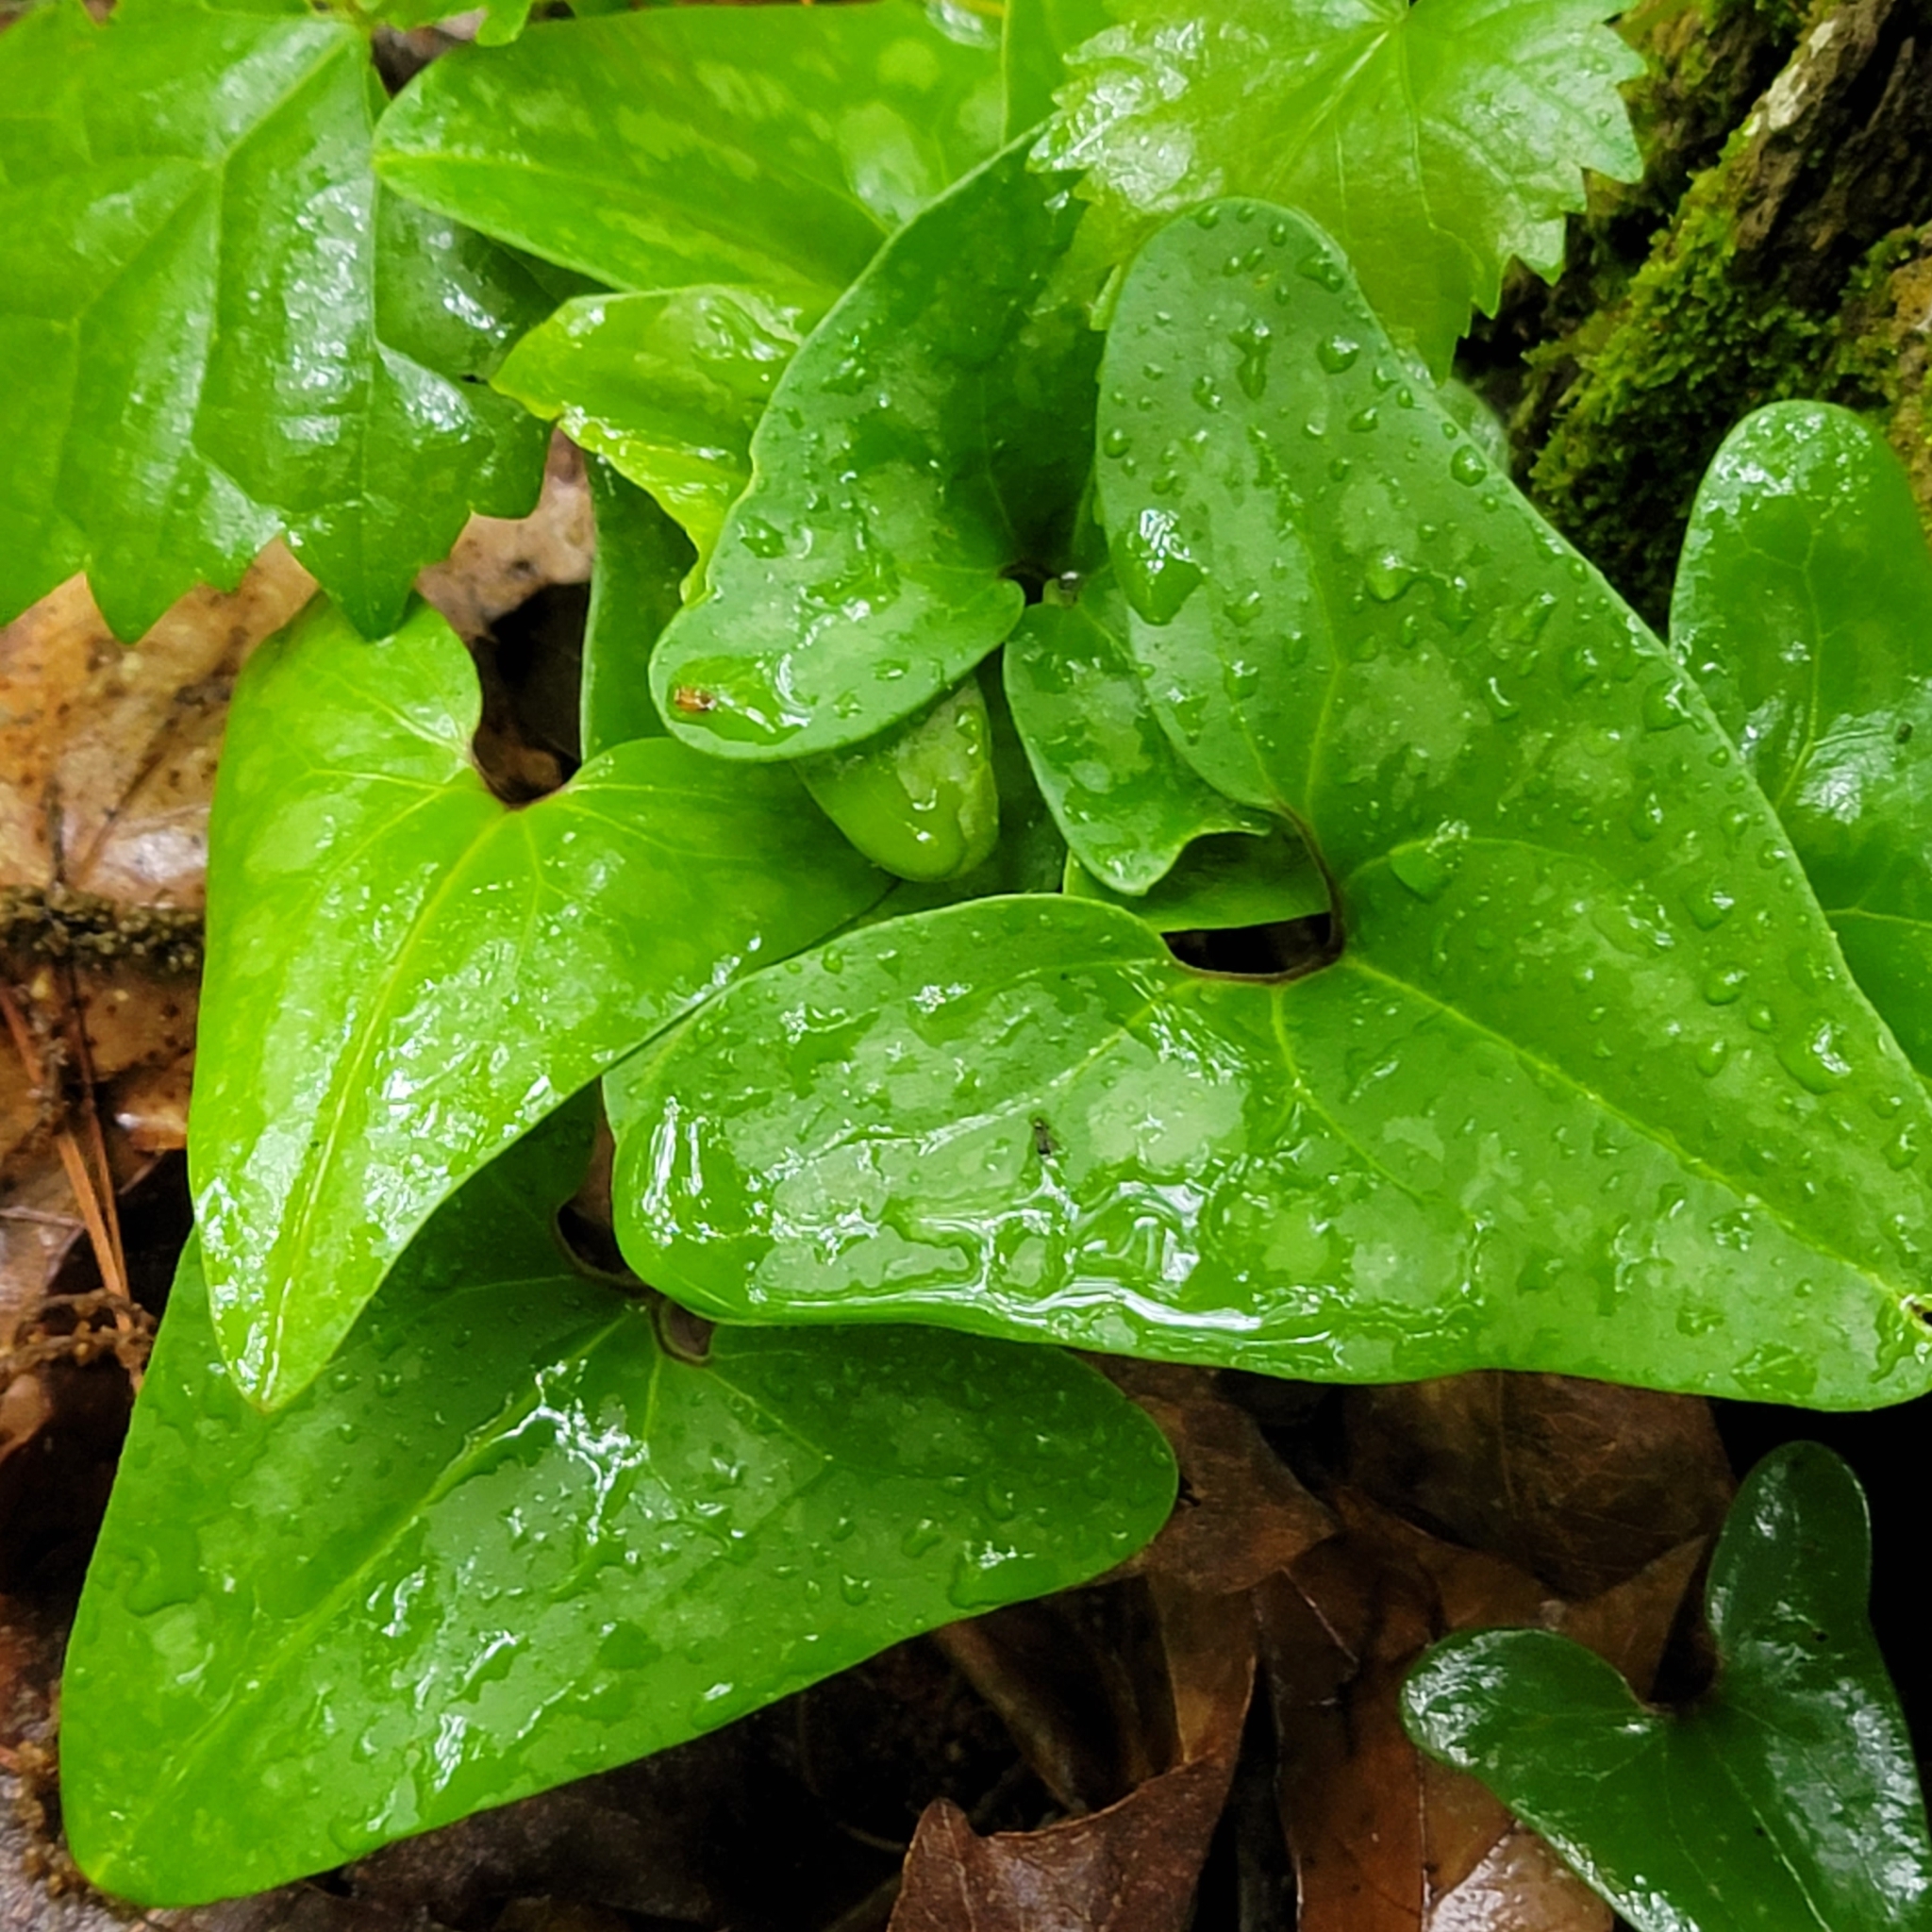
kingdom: Plantae
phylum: Tracheophyta
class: Magnoliopsida
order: Piperales
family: Aristolochiaceae
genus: Hexastylis
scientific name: Hexastylis arifolia
